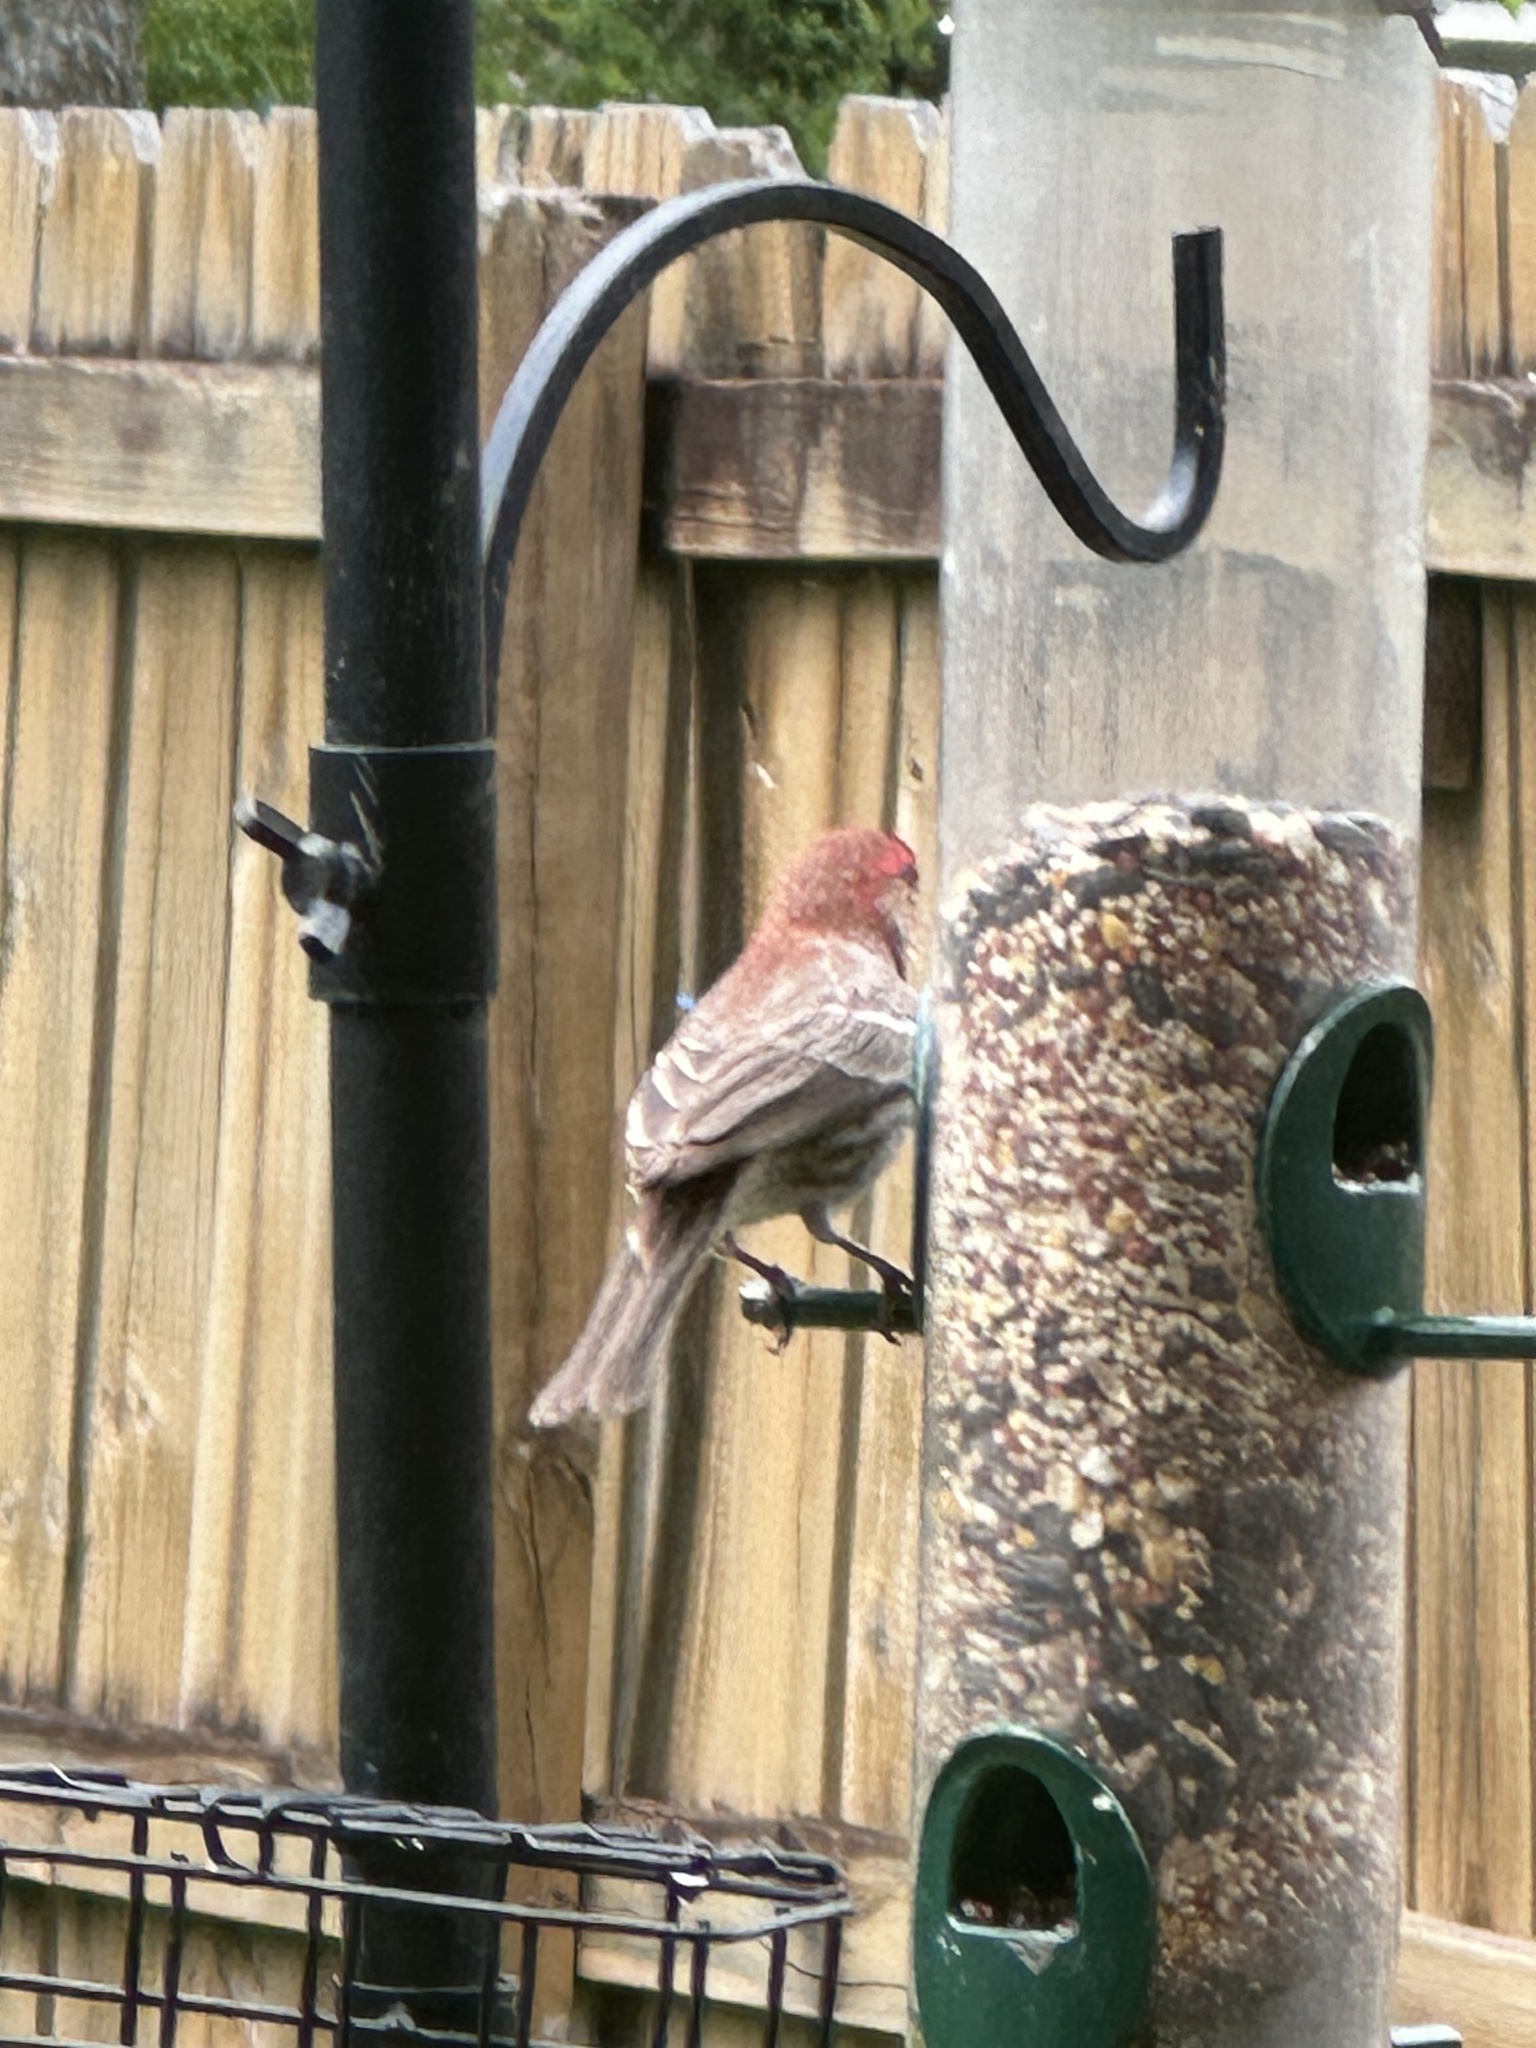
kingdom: Animalia
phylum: Chordata
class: Aves
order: Passeriformes
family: Fringillidae
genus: Haemorhous
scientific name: Haemorhous mexicanus
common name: House finch
